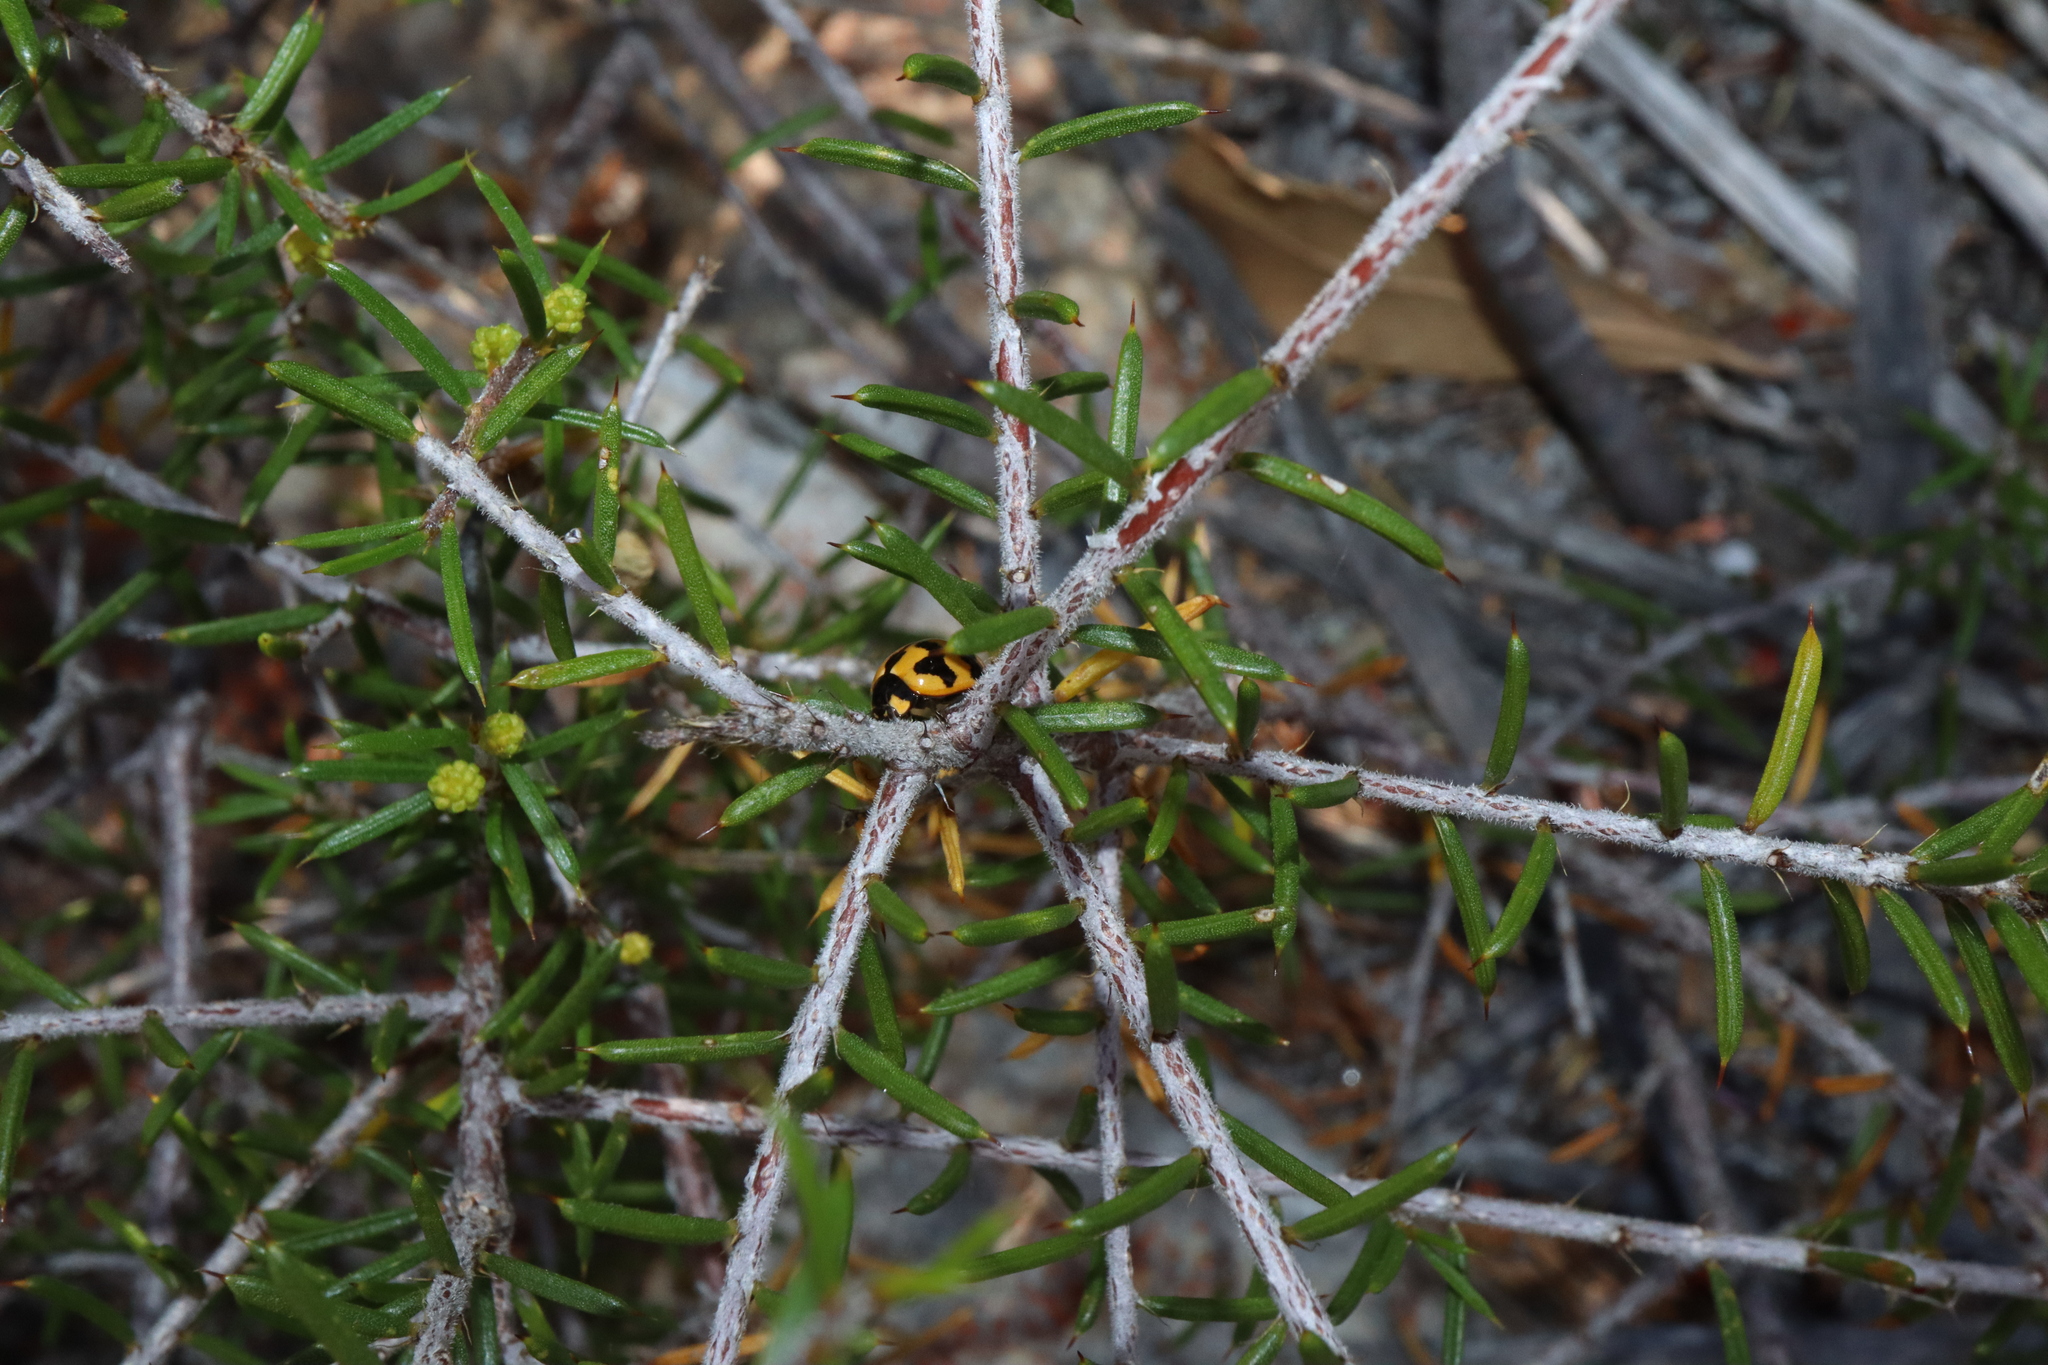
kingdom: Animalia
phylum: Arthropoda
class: Insecta
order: Coleoptera
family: Coccinellidae
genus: Coccinella
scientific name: Coccinella transversalis
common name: Transverse lady beetle
